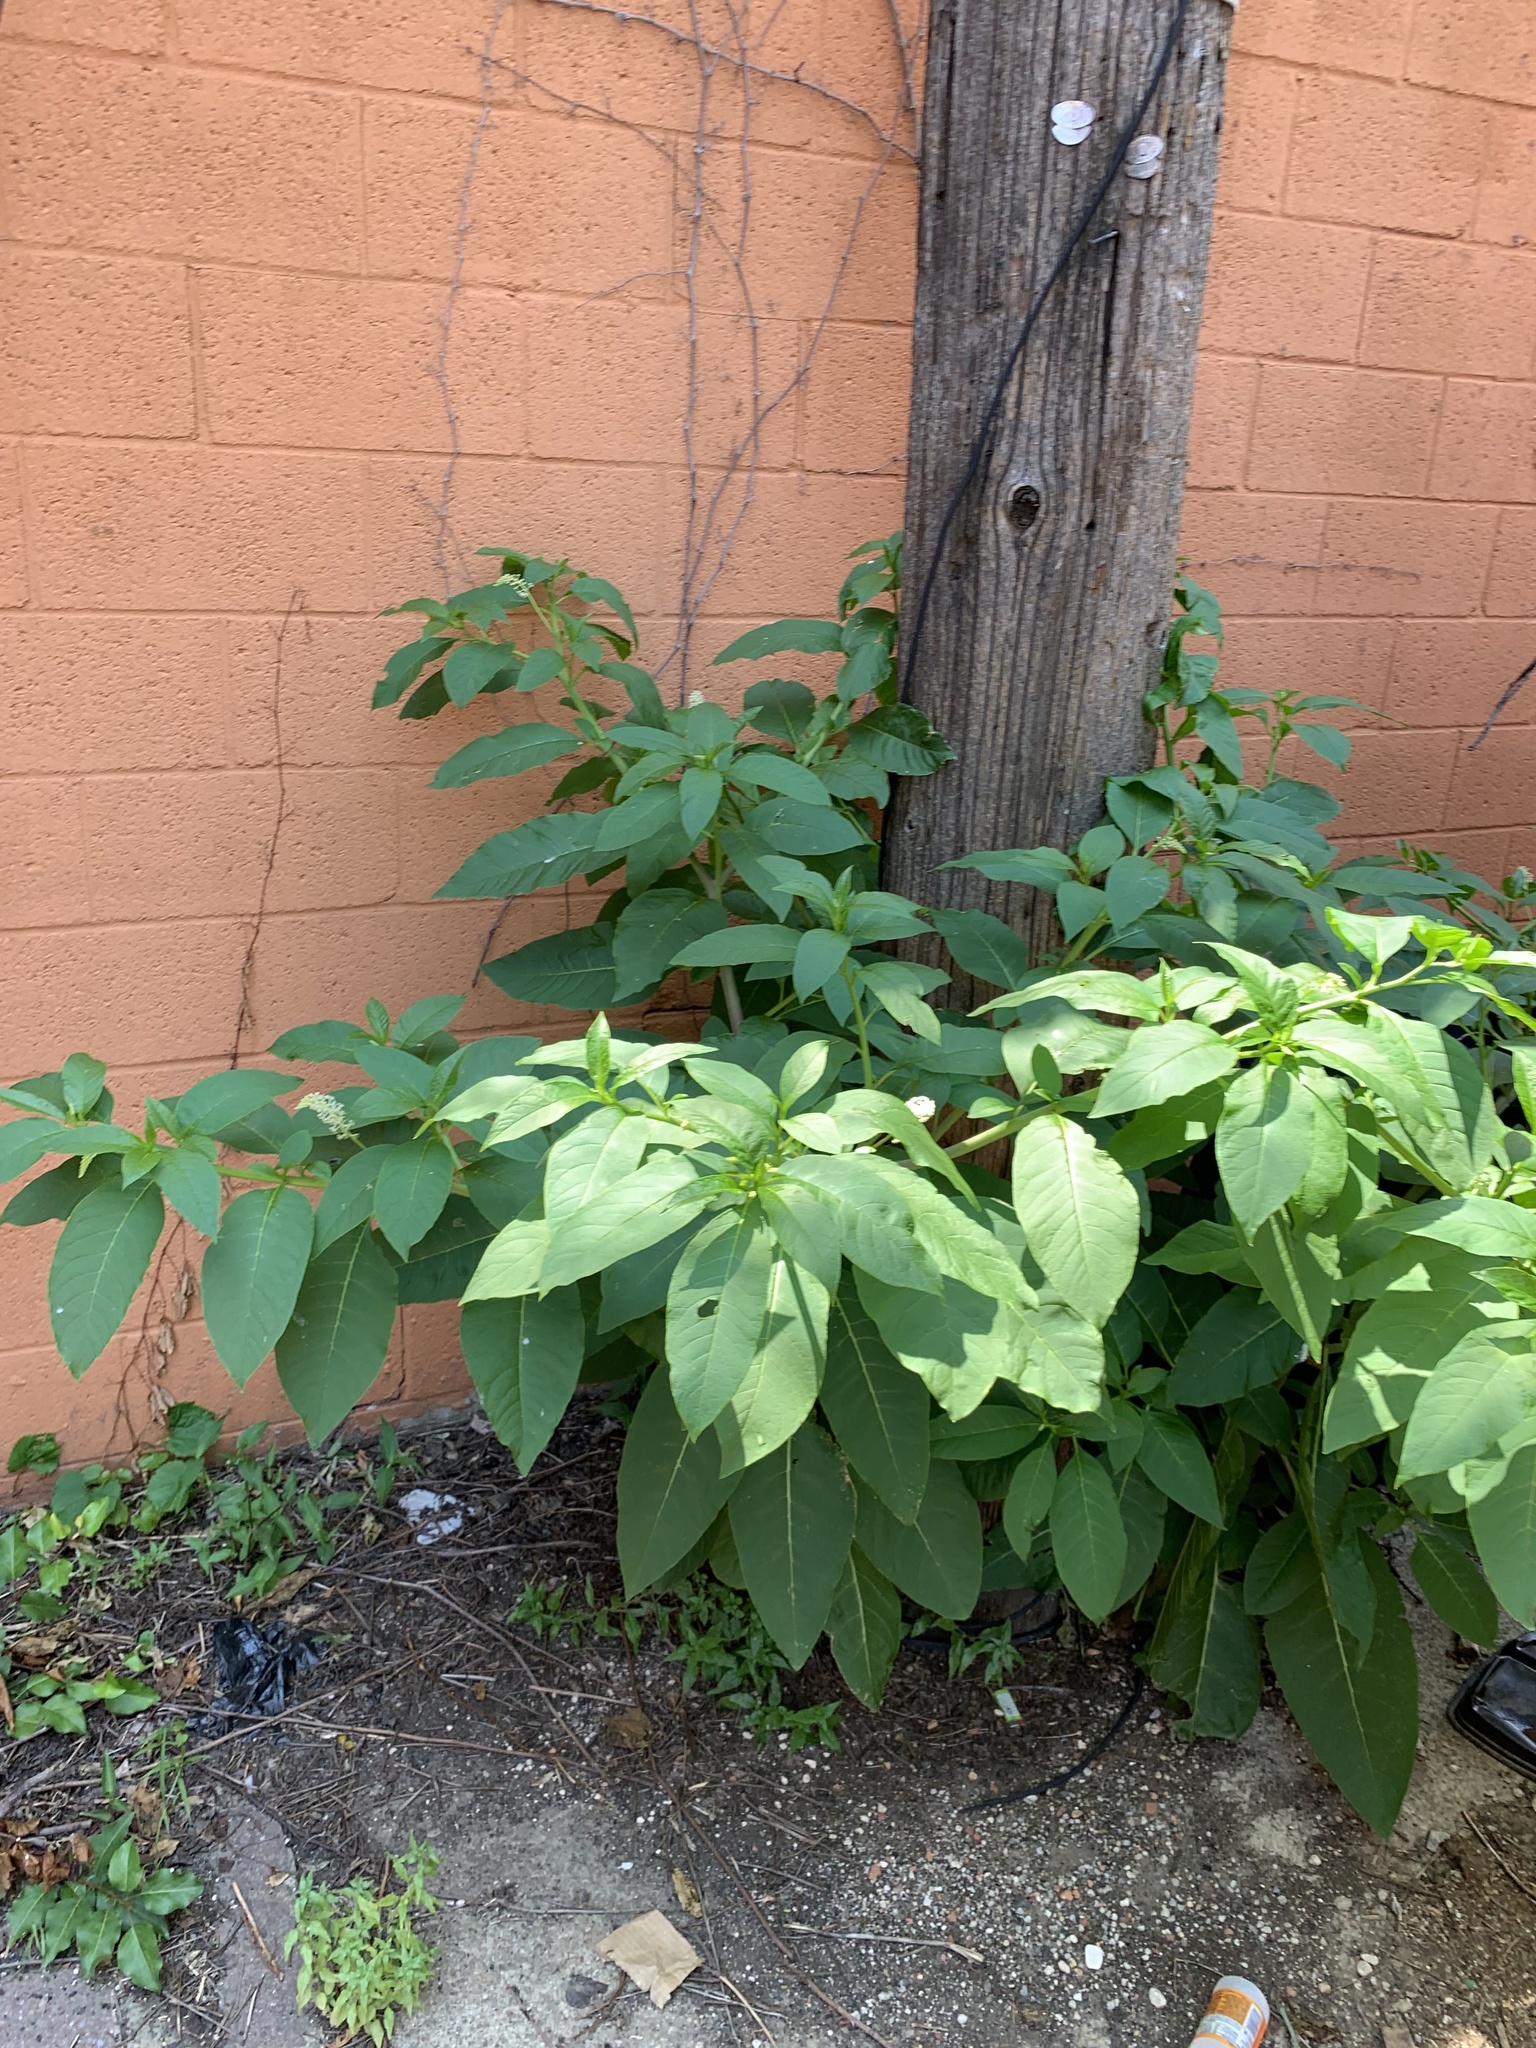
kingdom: Plantae
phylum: Tracheophyta
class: Magnoliopsida
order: Caryophyllales
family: Phytolaccaceae
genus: Phytolacca
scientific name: Phytolacca americana
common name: American pokeweed
